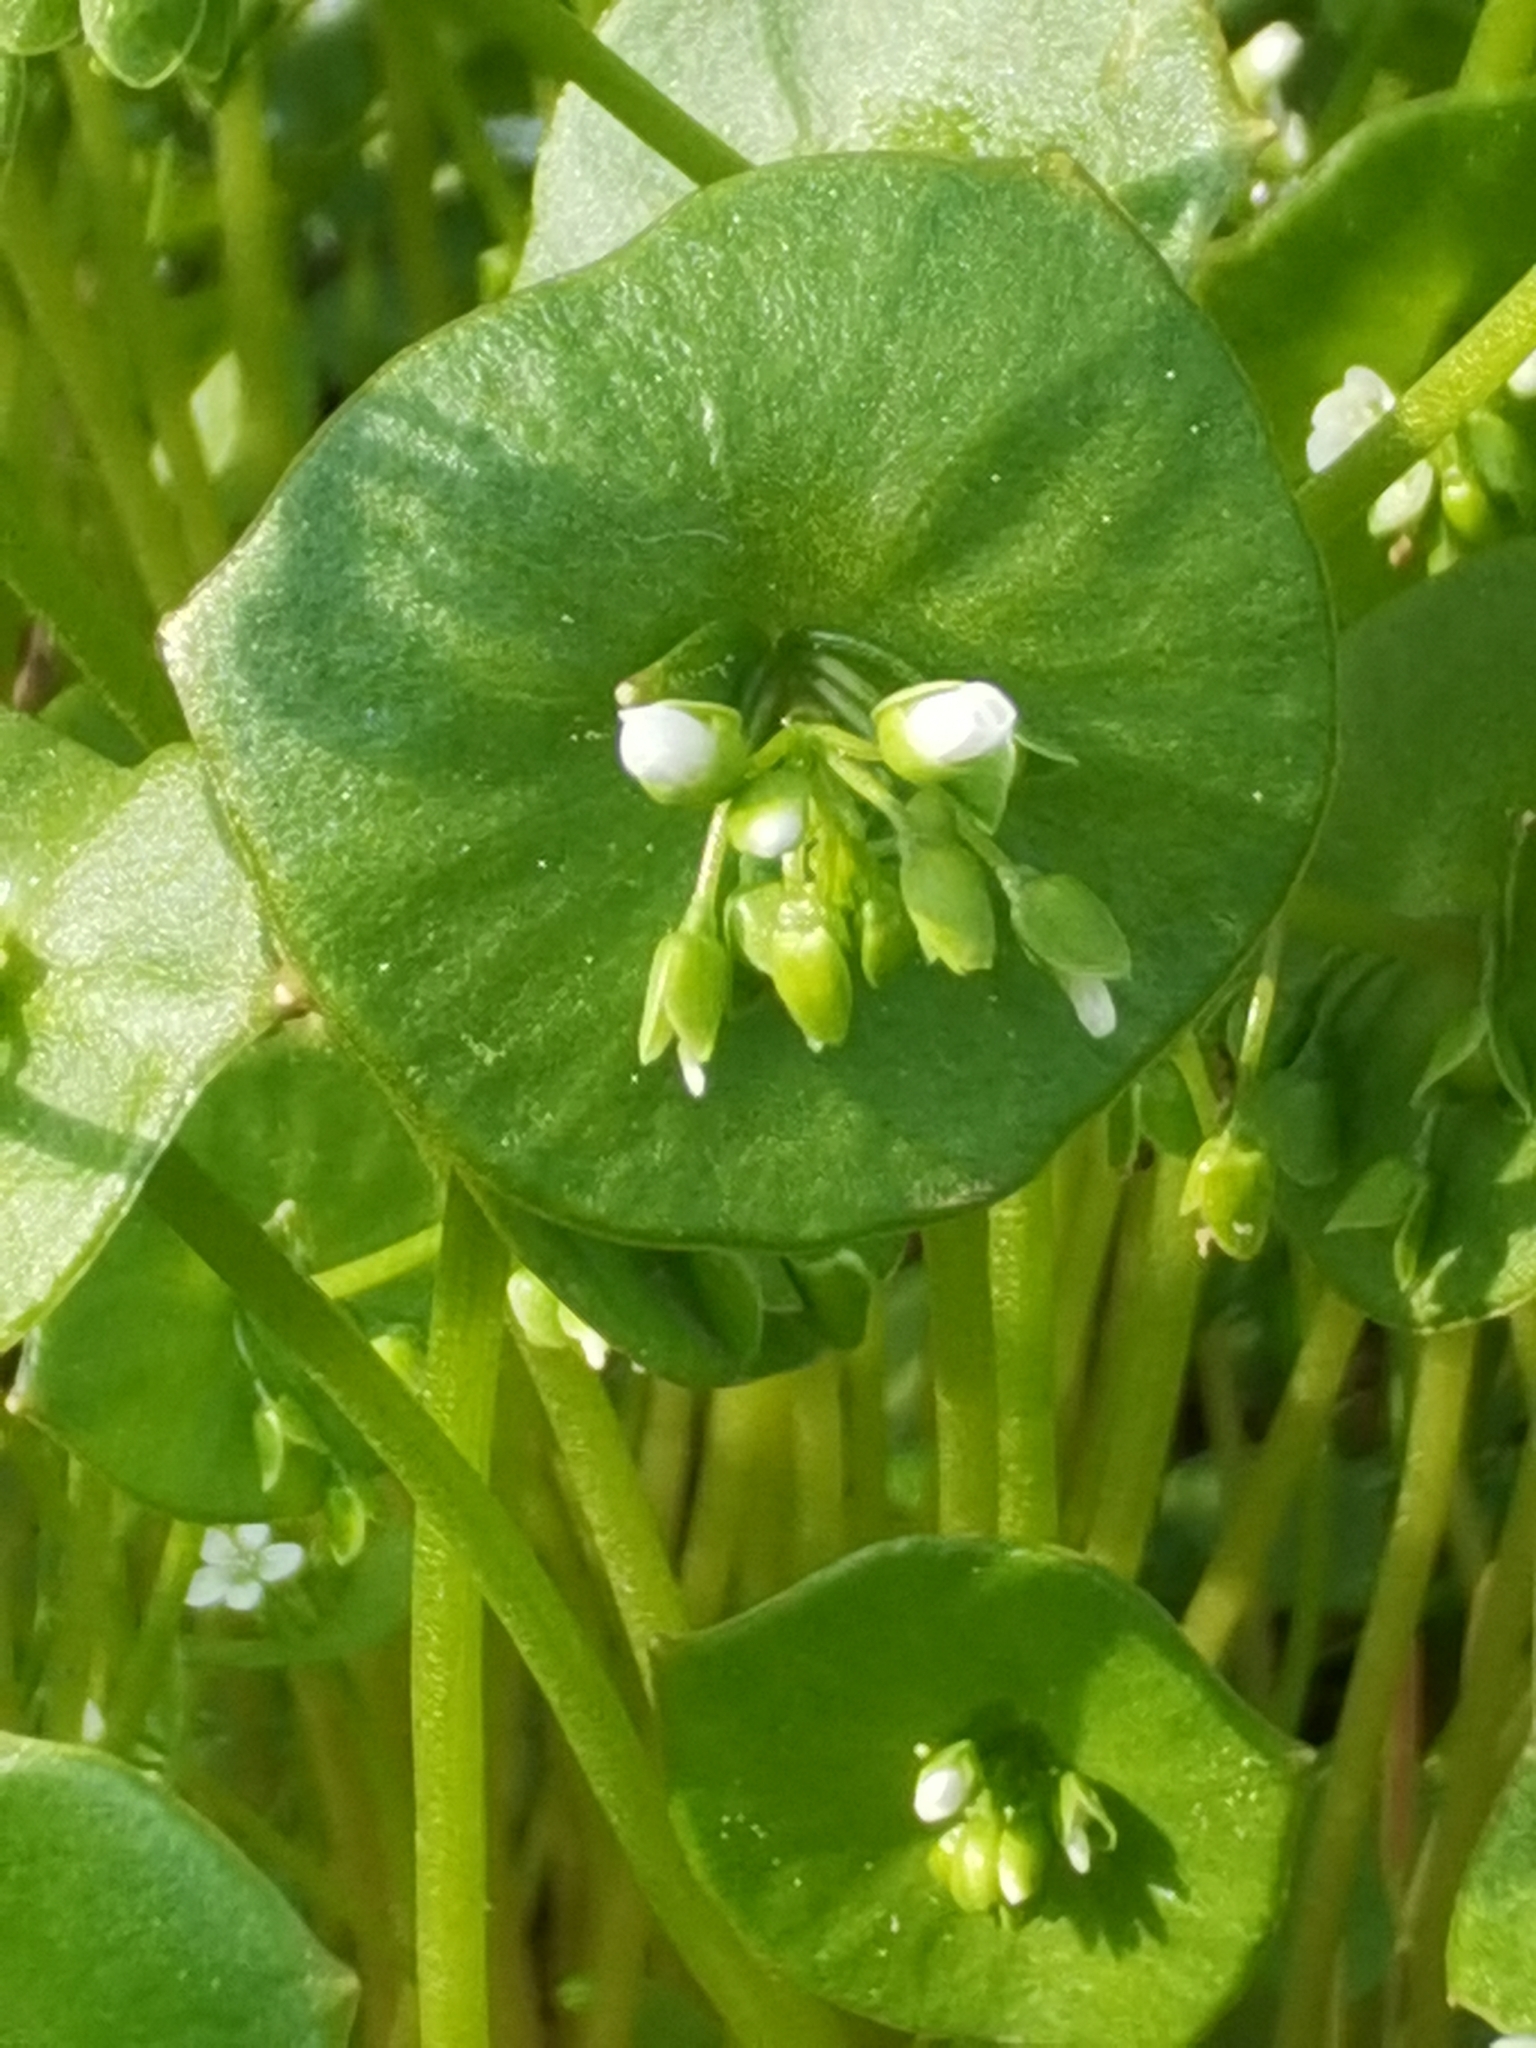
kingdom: Plantae
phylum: Tracheophyta
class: Magnoliopsida
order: Caryophyllales
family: Montiaceae
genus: Claytonia
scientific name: Claytonia perfoliata
